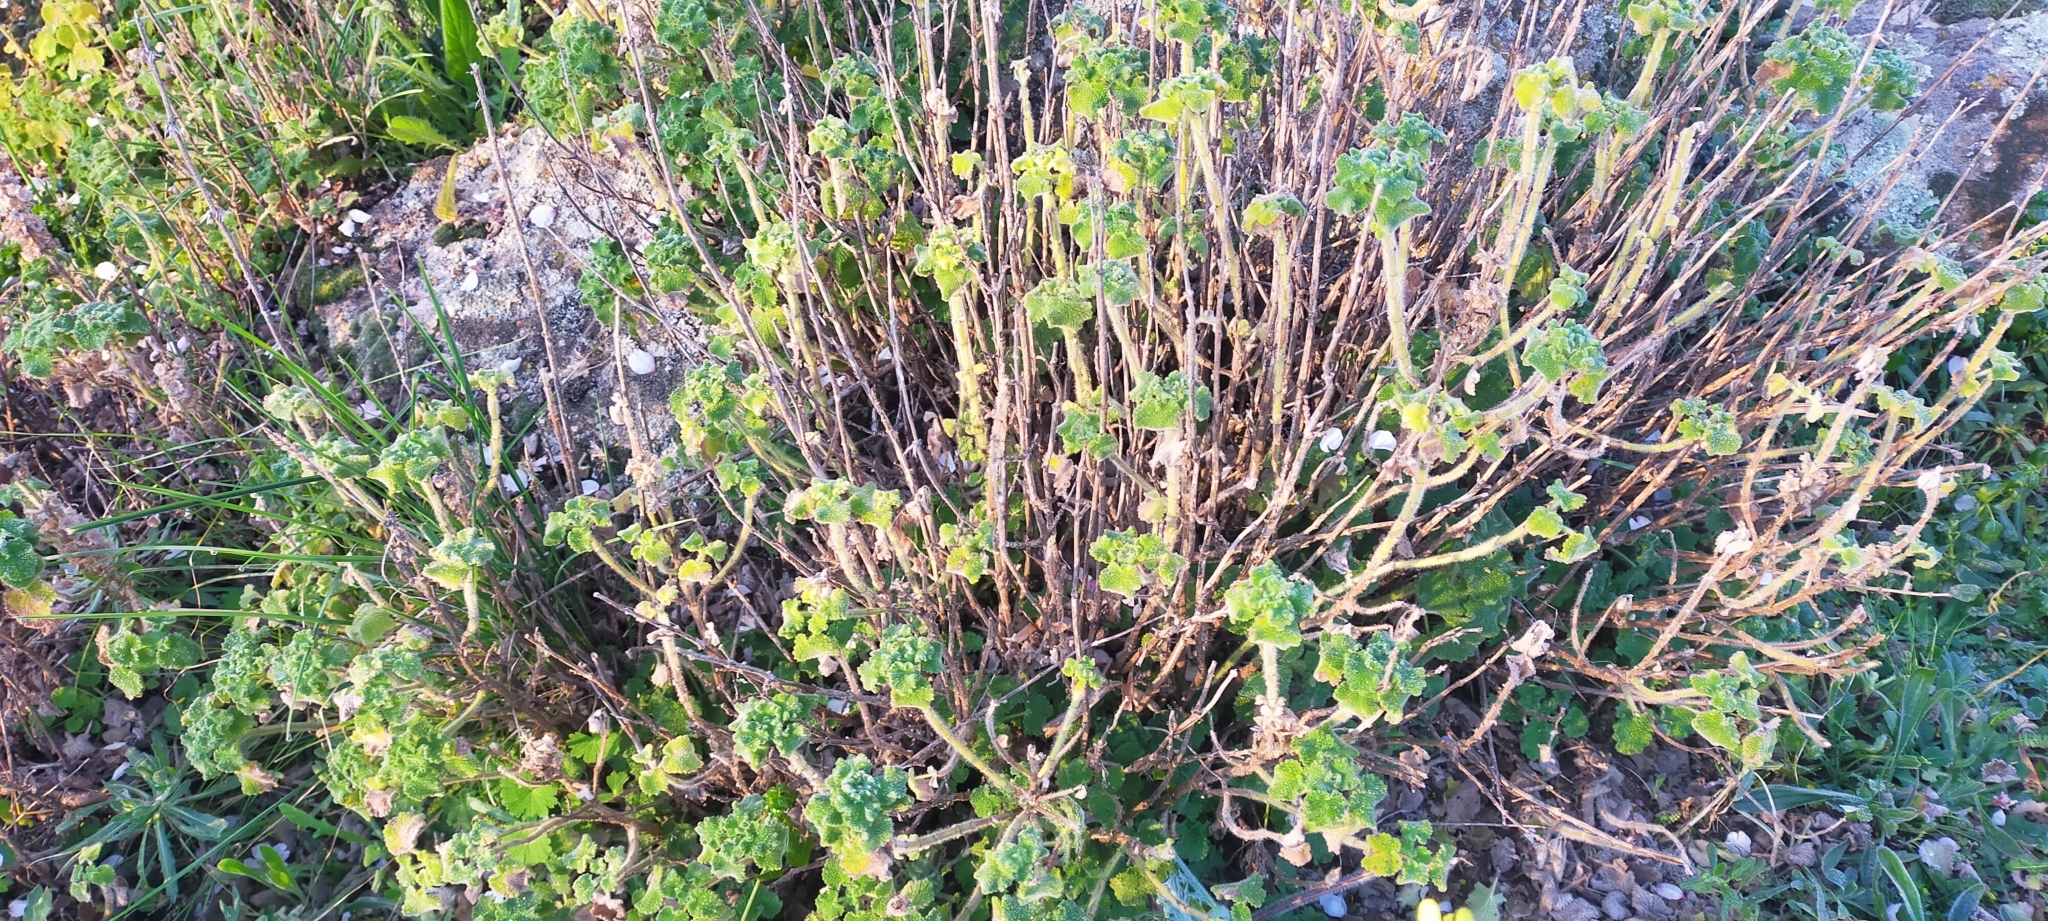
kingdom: Plantae
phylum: Tracheophyta
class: Magnoliopsida
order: Lamiales
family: Lamiaceae
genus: Pseudodictamnus
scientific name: Pseudodictamnus hirsutus
